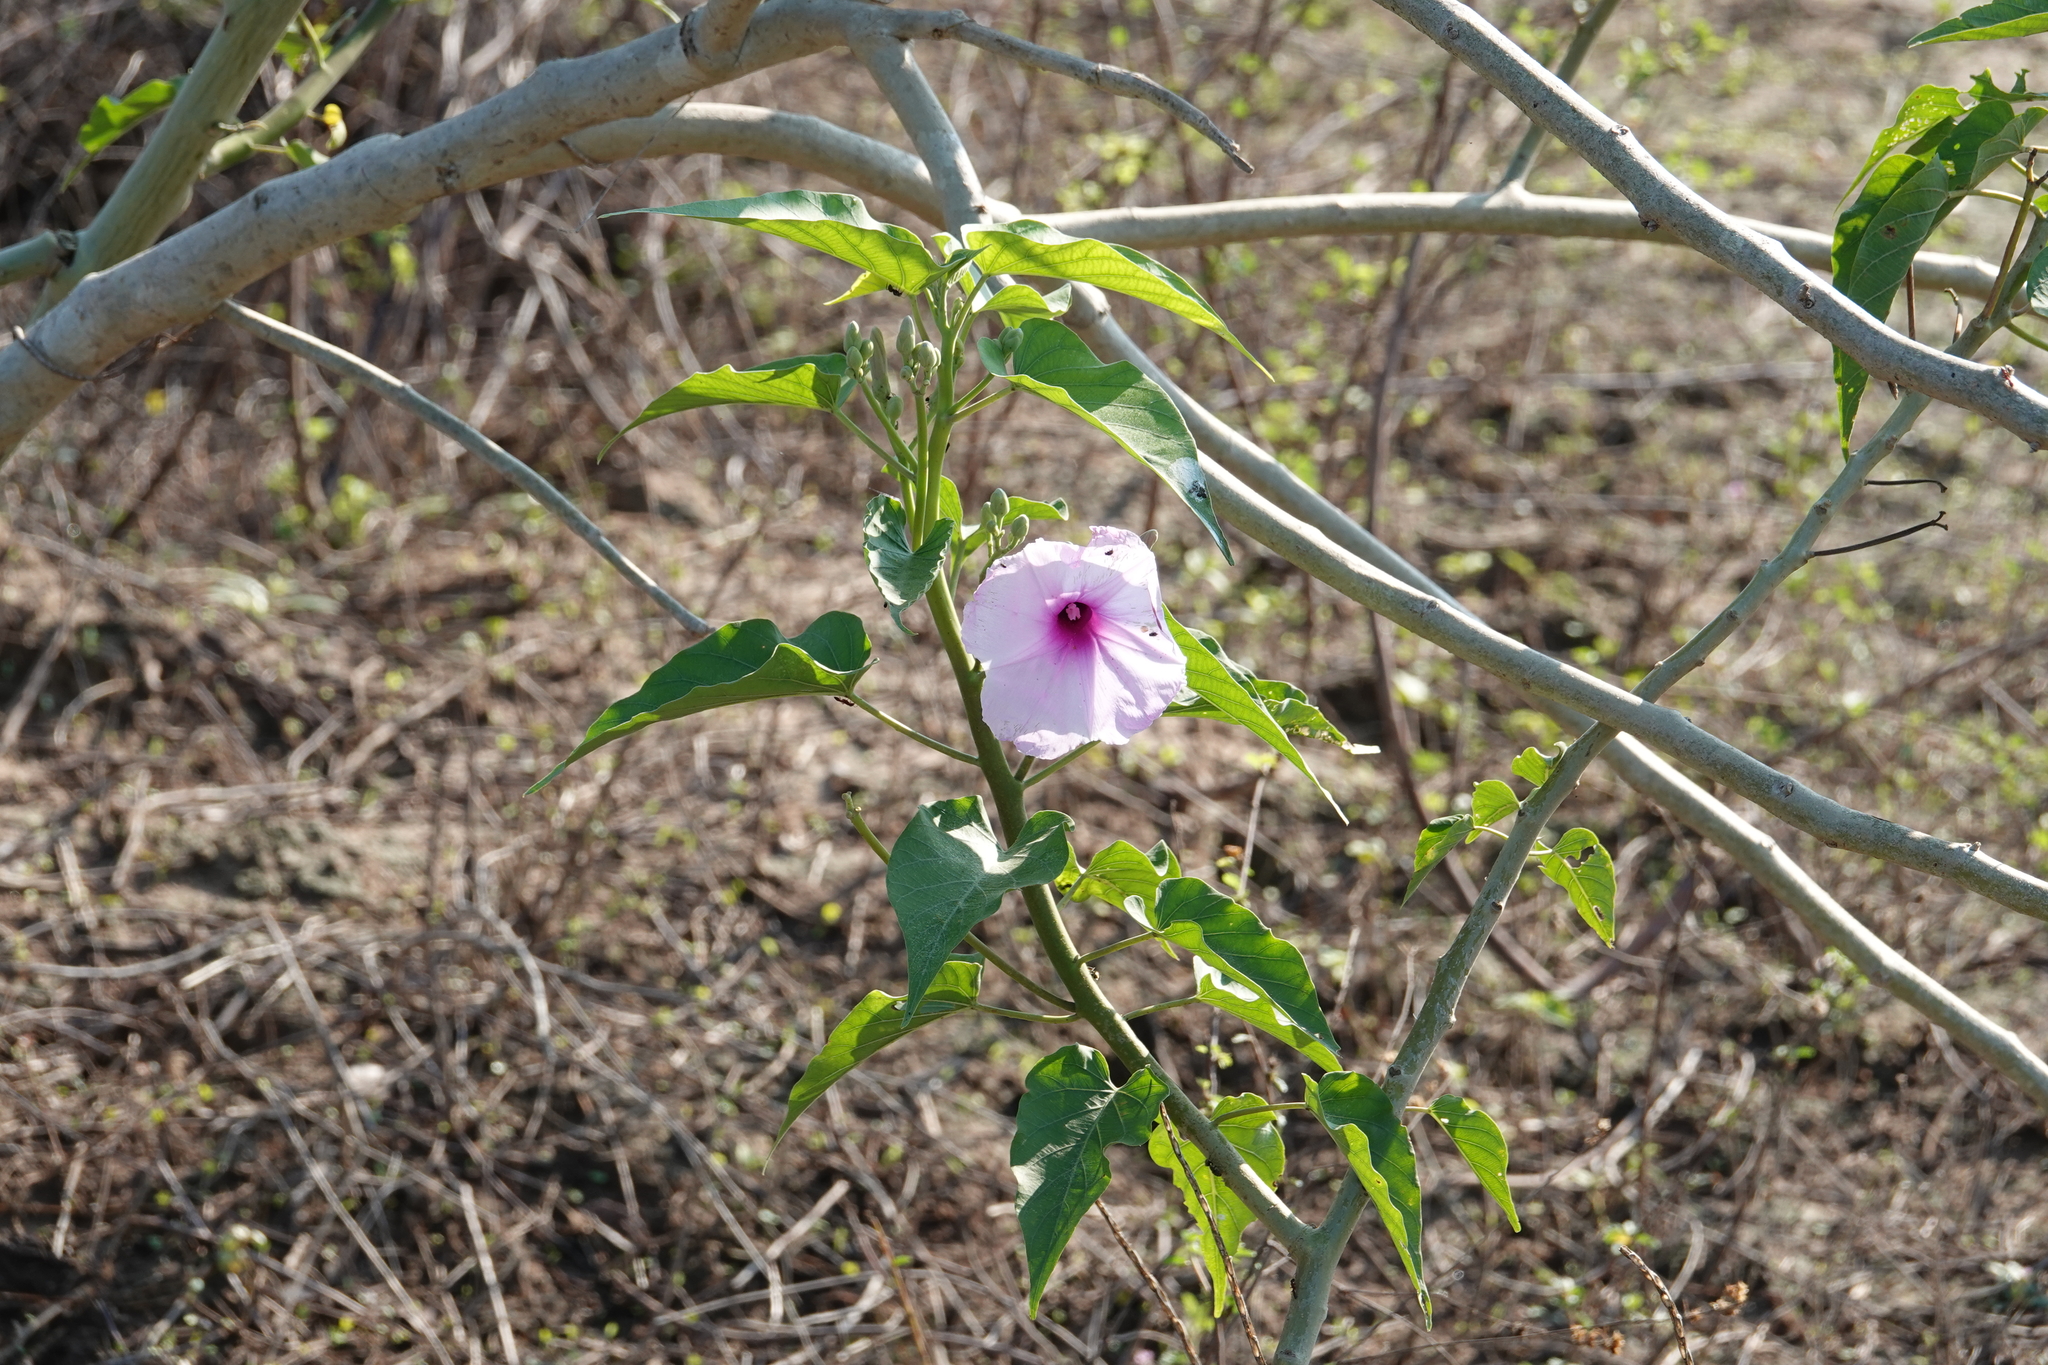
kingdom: Plantae
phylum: Tracheophyta
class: Magnoliopsida
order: Solanales
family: Convolvulaceae
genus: Ipomoea
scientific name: Ipomoea carnea
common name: Morning-glory
